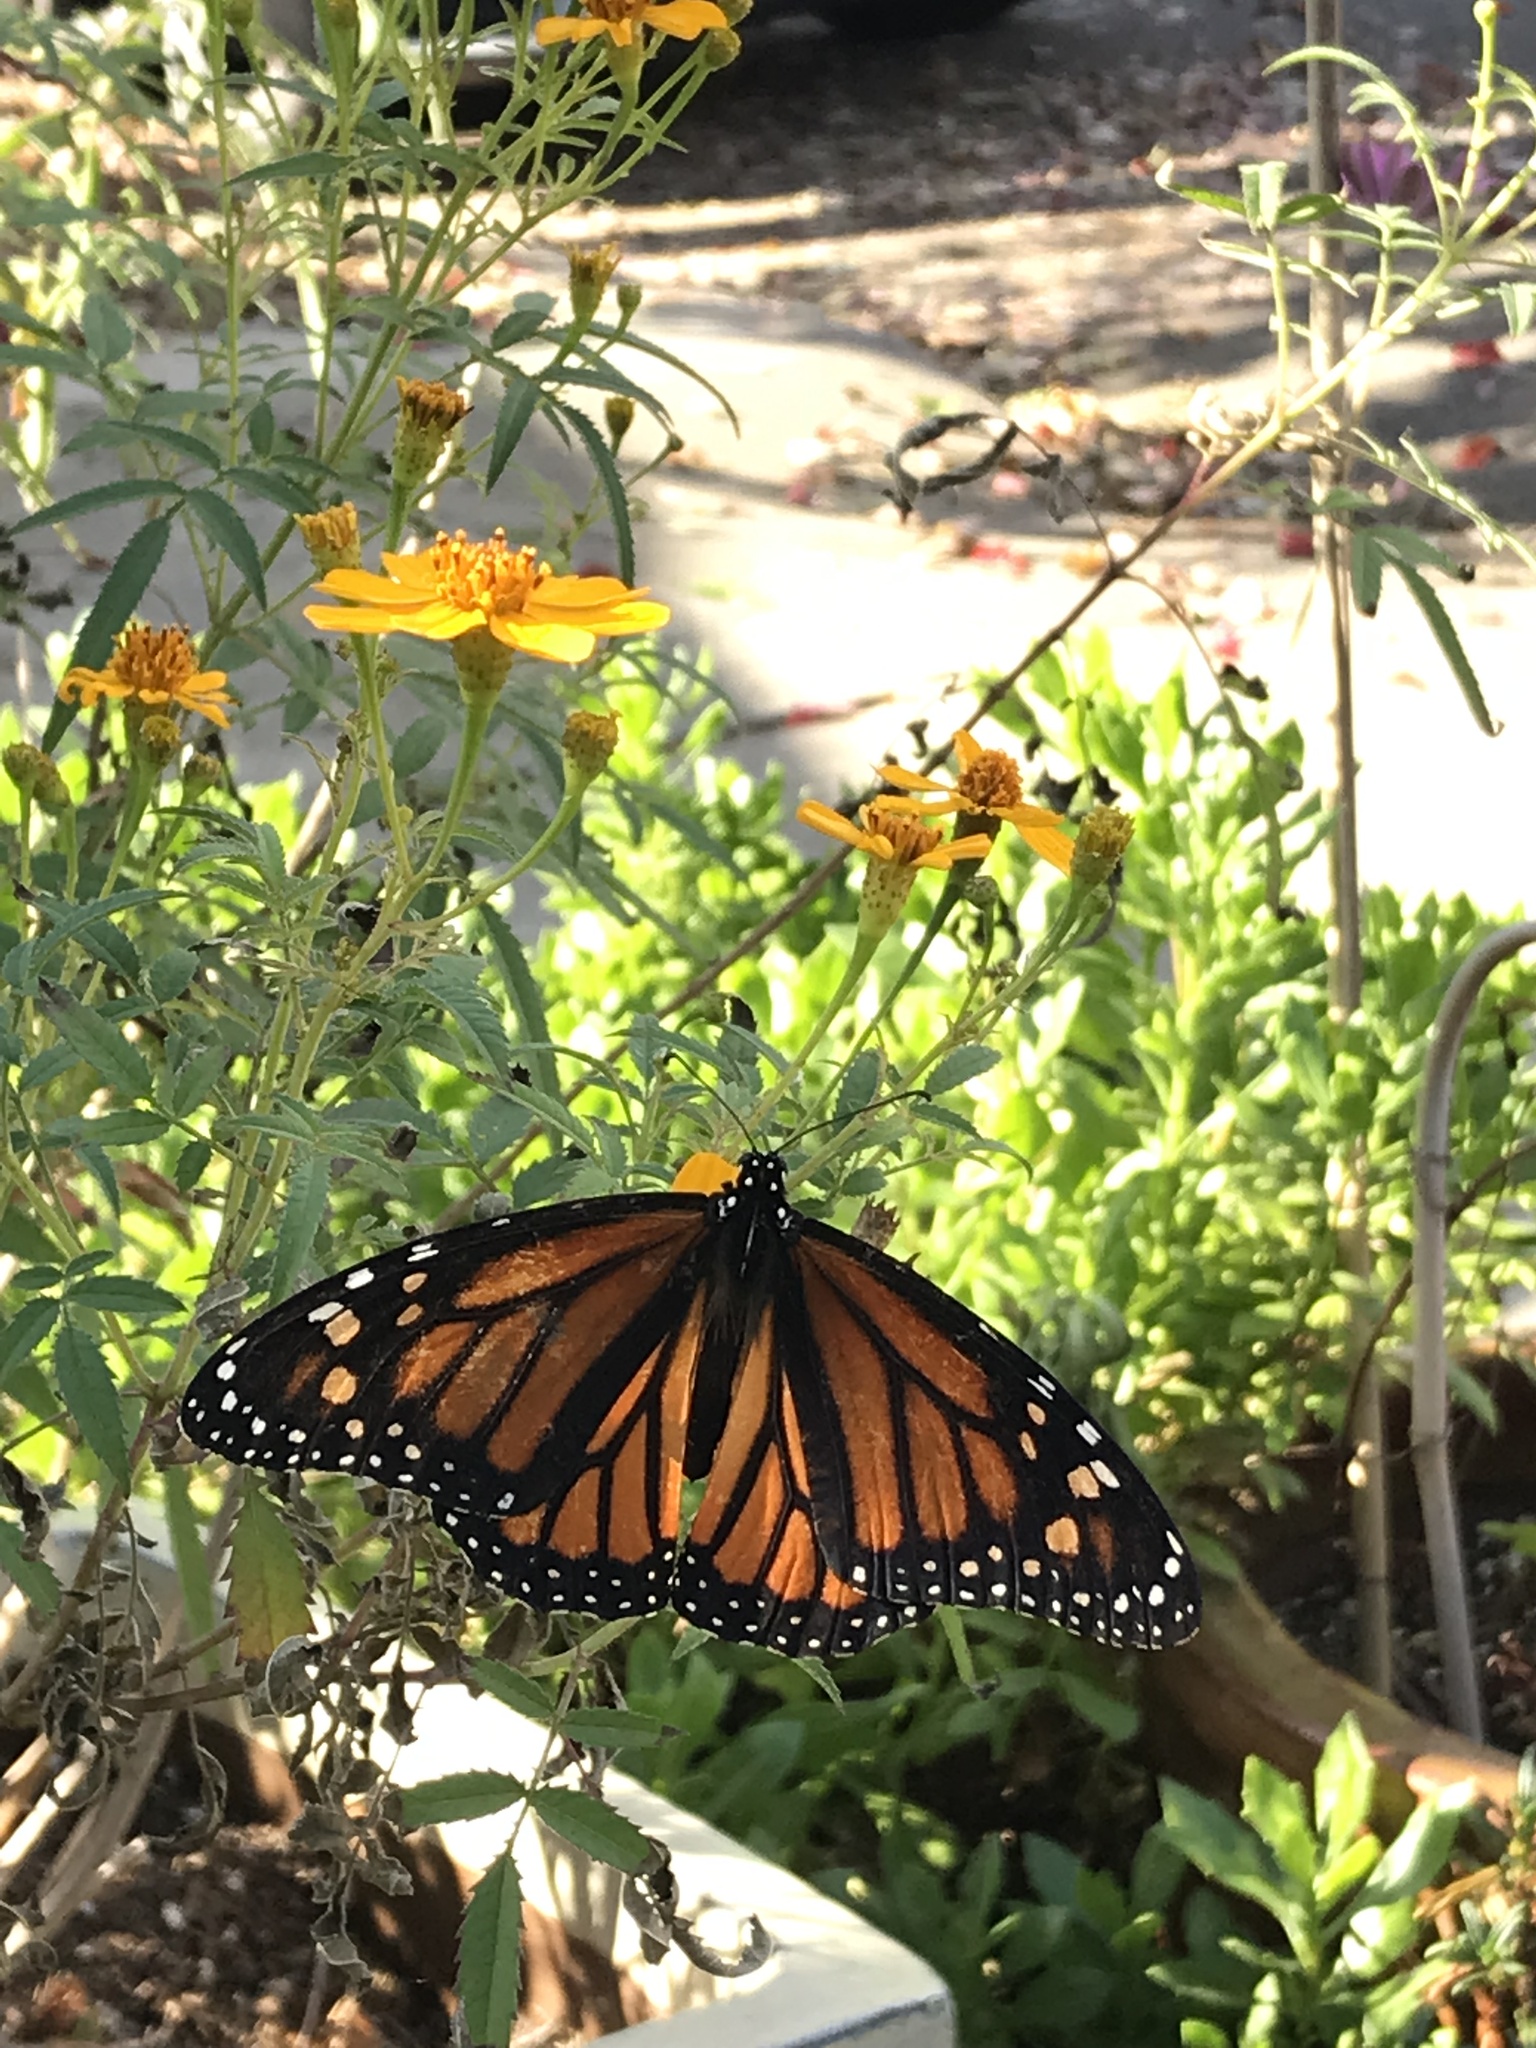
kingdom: Animalia
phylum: Arthropoda
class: Insecta
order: Lepidoptera
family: Nymphalidae
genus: Danaus
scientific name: Danaus plexippus
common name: Monarch
